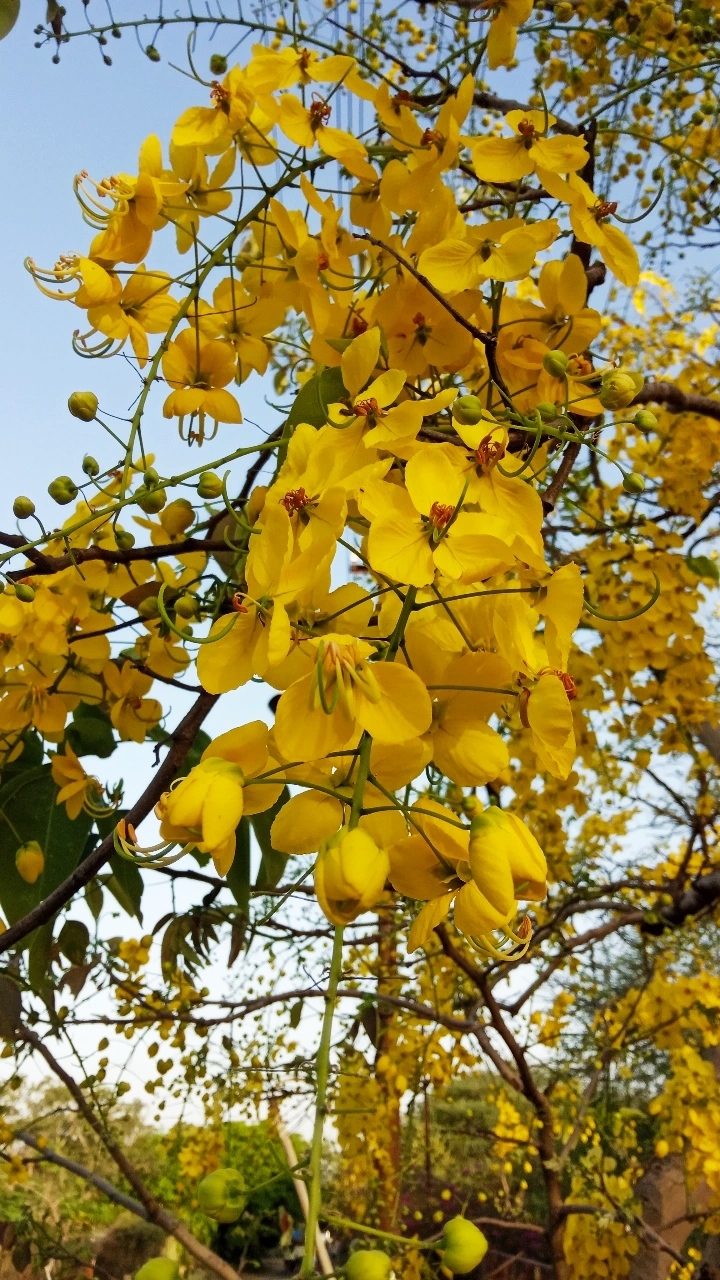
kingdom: Plantae
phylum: Tracheophyta
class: Magnoliopsida
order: Fabales
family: Fabaceae
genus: Cassia
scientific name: Cassia fistula
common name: Golden shower
